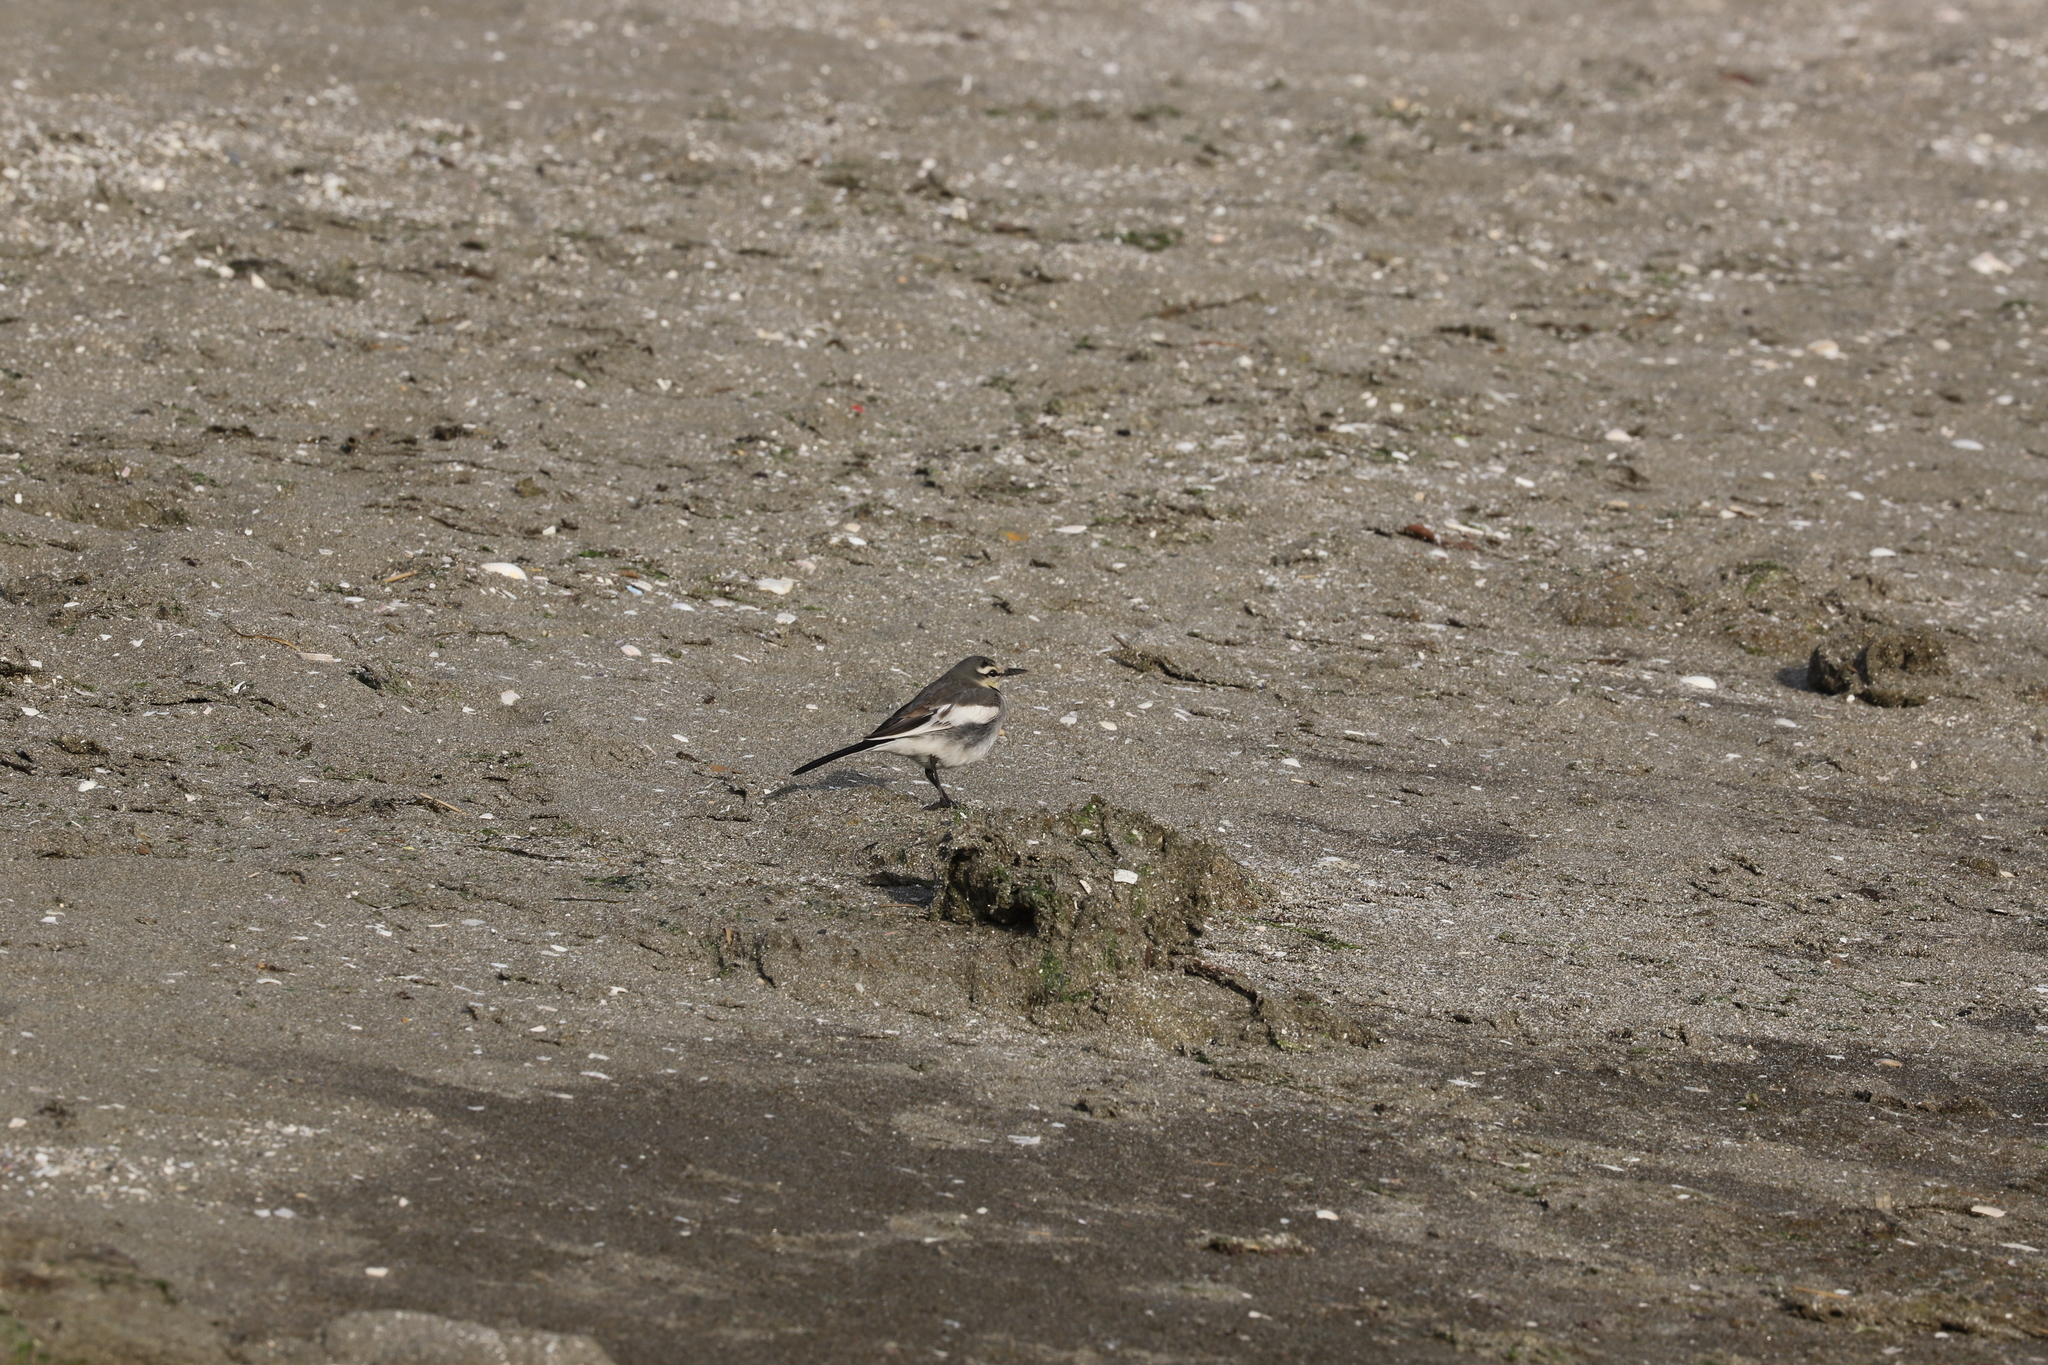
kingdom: Animalia
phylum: Chordata
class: Aves
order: Passeriformes
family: Motacillidae
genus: Motacilla
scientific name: Motacilla alba
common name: White wagtail
